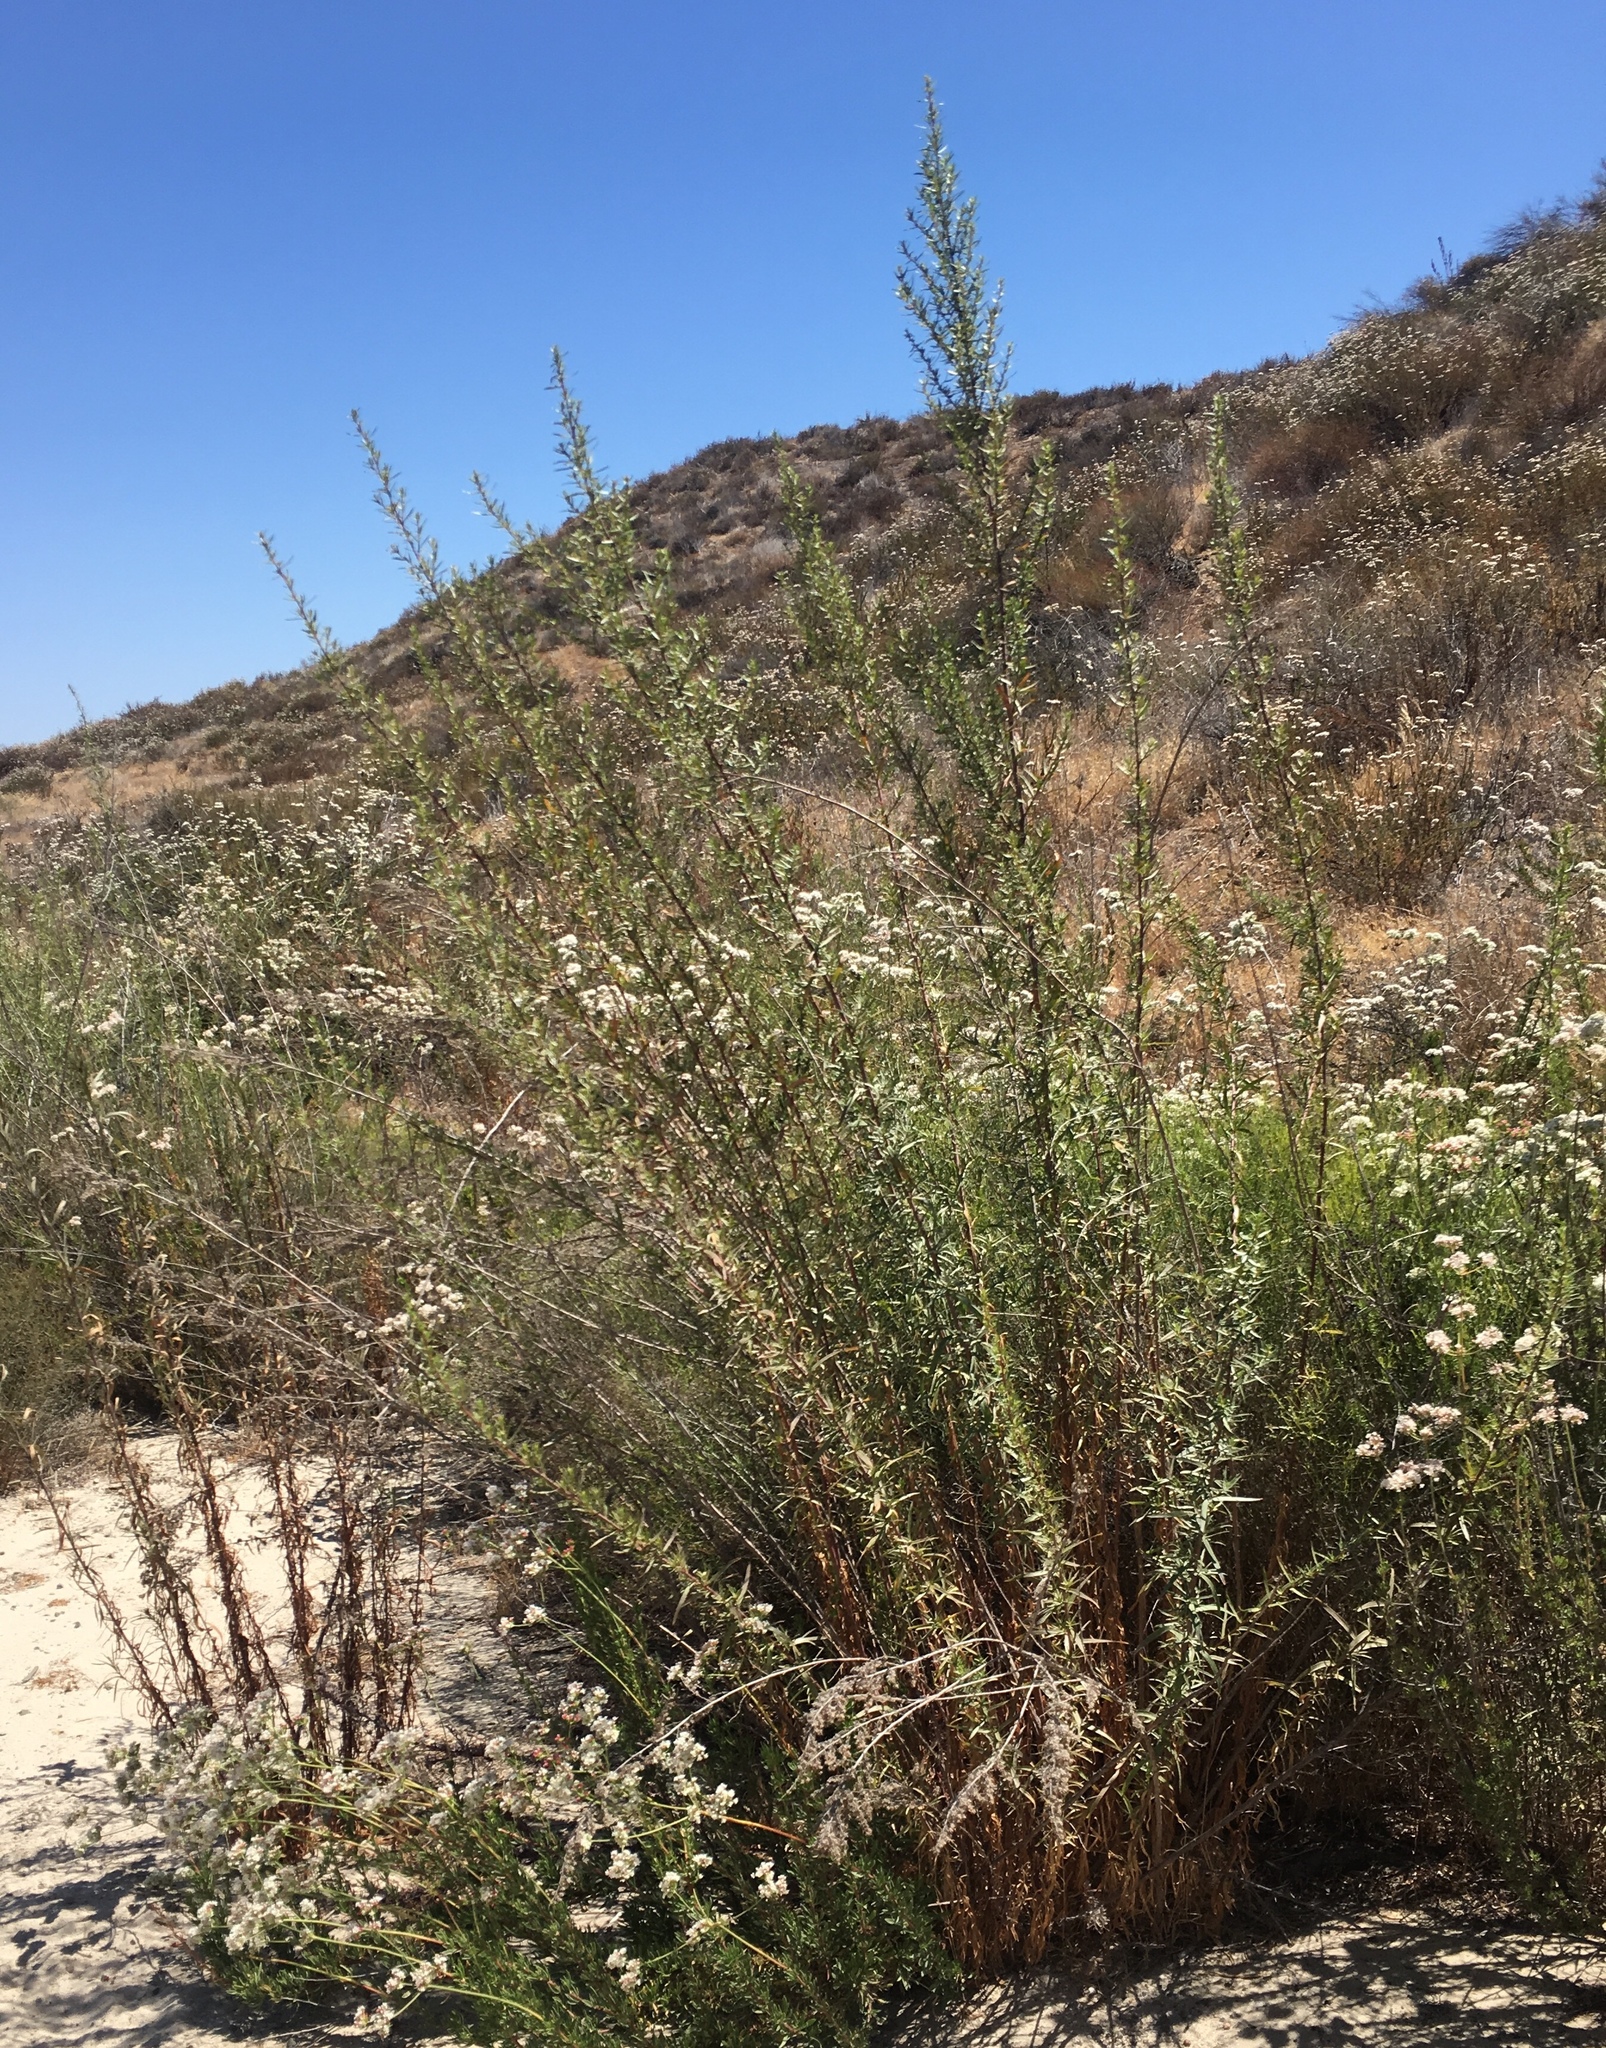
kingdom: Plantae
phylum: Tracheophyta
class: Magnoliopsida
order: Asterales
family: Asteraceae
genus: Artemisia
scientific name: Artemisia dracunculus
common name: Tarragon
